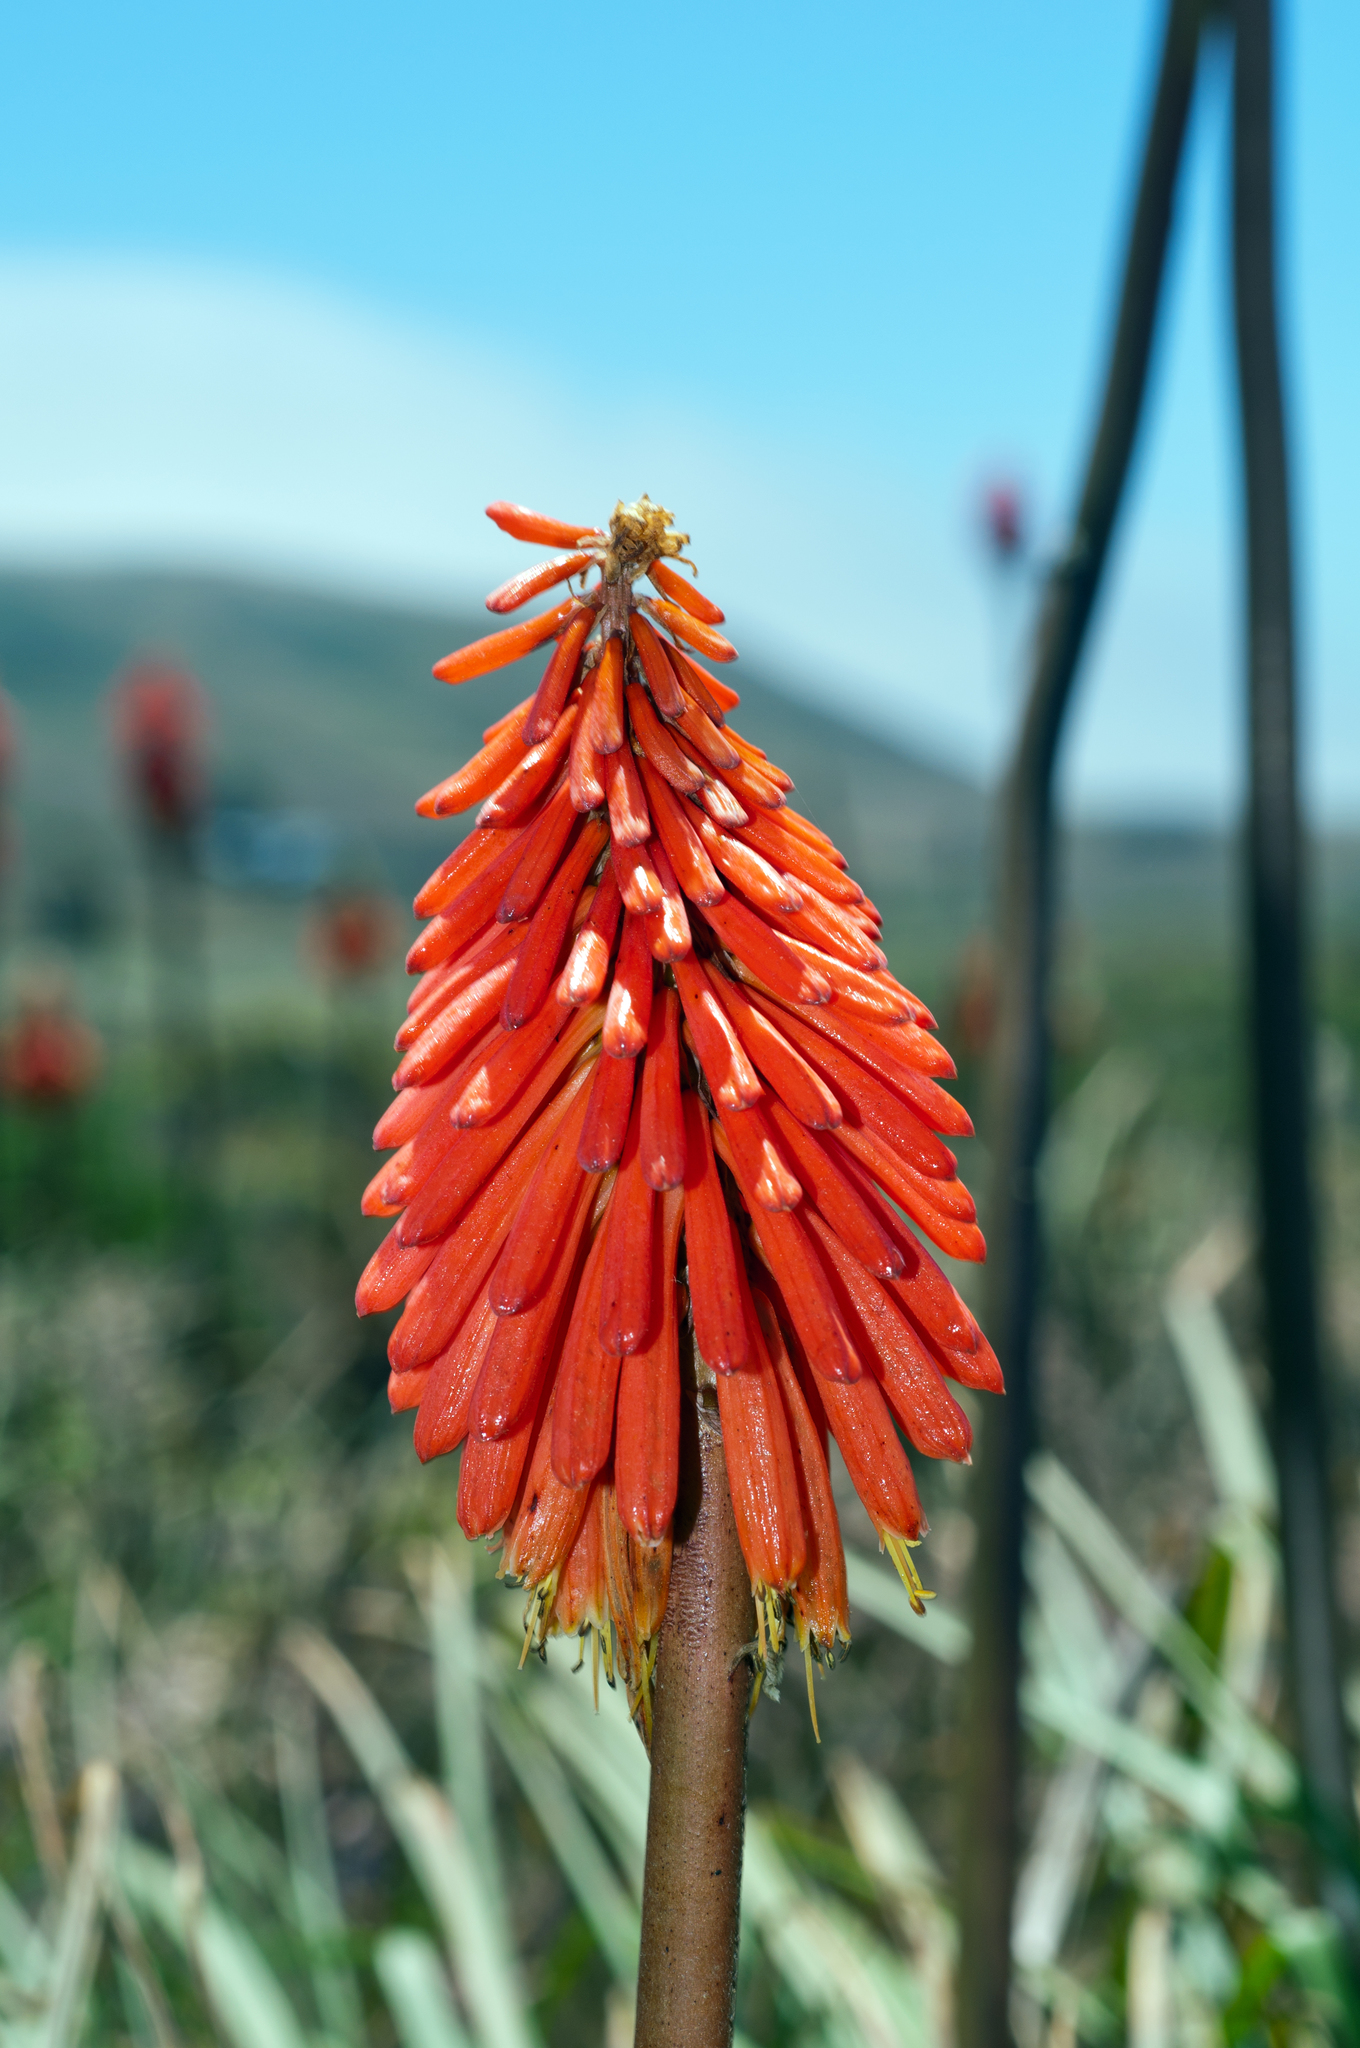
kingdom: Plantae
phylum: Tracheophyta
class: Liliopsida
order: Asparagales
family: Asphodelaceae
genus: Kniphofia
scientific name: Kniphofia uvaria
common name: Red-hot-poker
